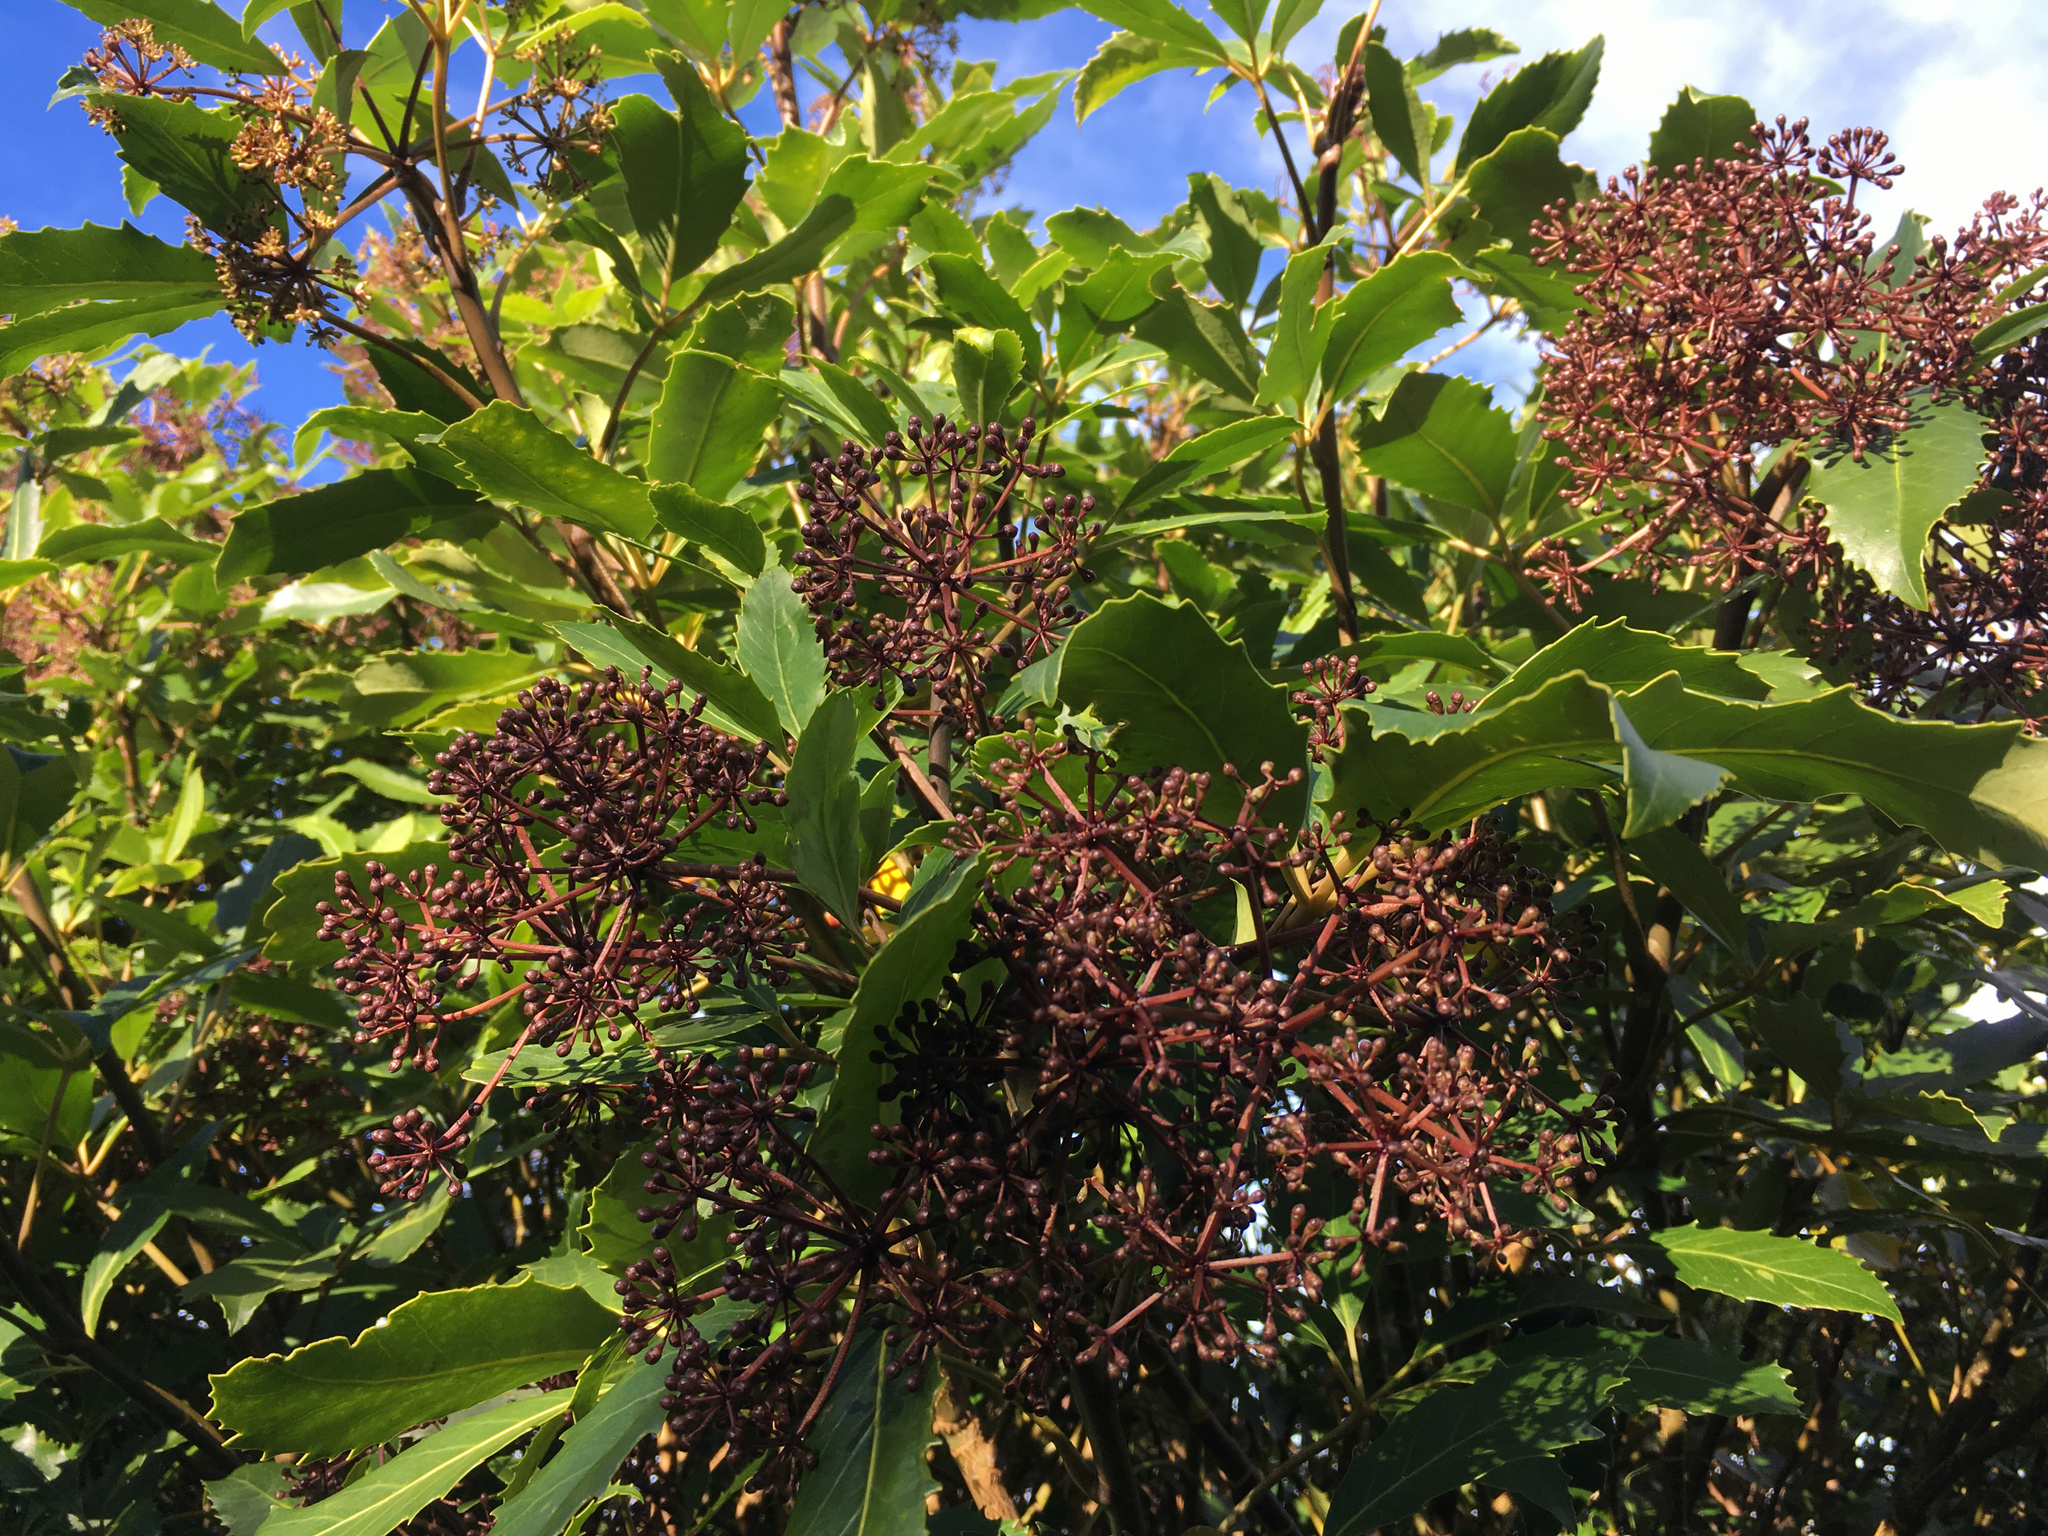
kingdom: Plantae
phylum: Tracheophyta
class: Magnoliopsida
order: Apiales
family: Araliaceae
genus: Neopanax
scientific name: Neopanax arboreus
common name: Five-fingers
